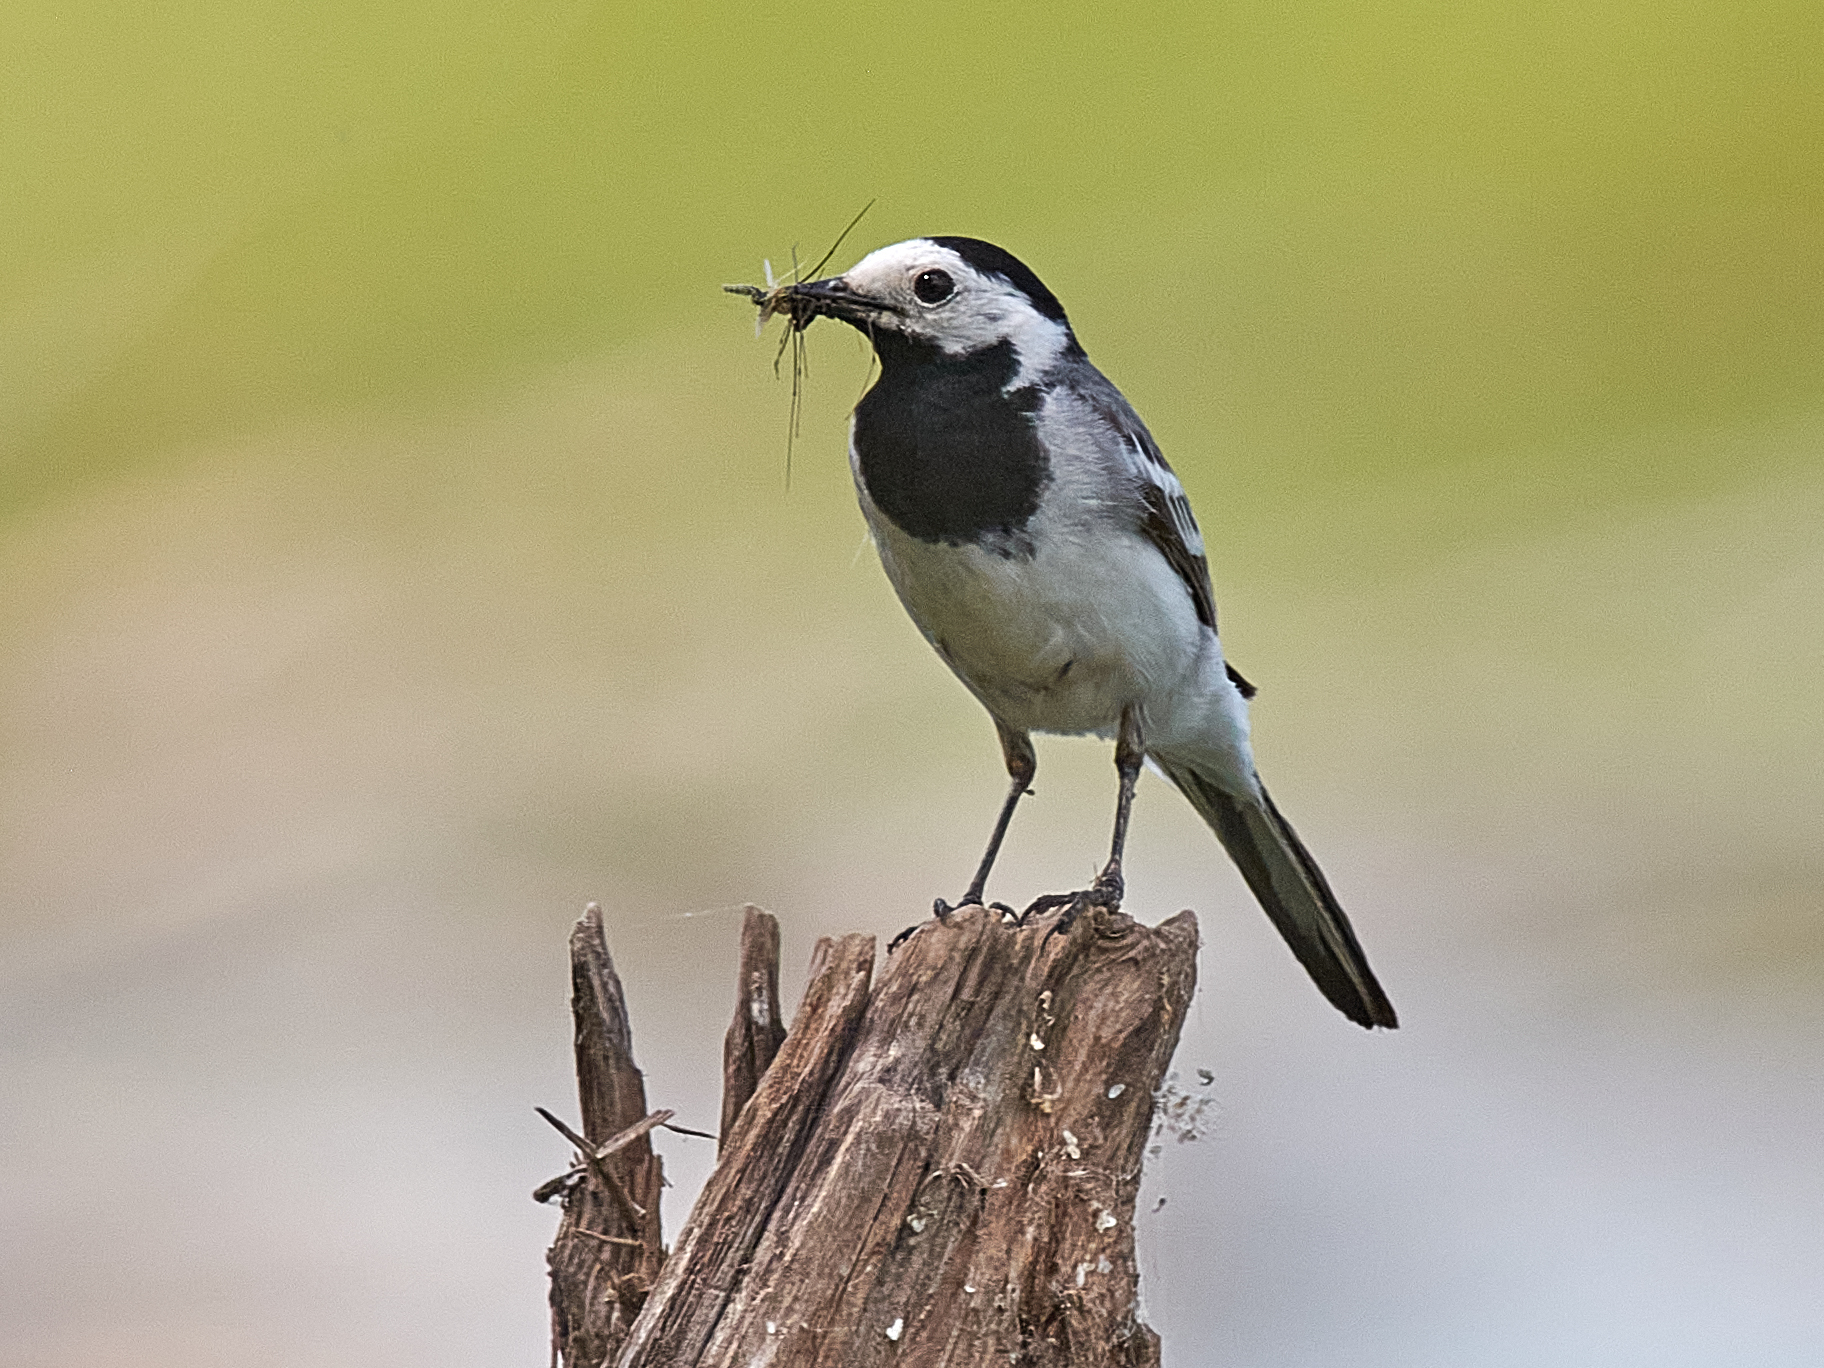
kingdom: Animalia
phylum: Chordata
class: Aves
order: Passeriformes
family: Motacillidae
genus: Motacilla
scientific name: Motacilla alba
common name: White wagtail
